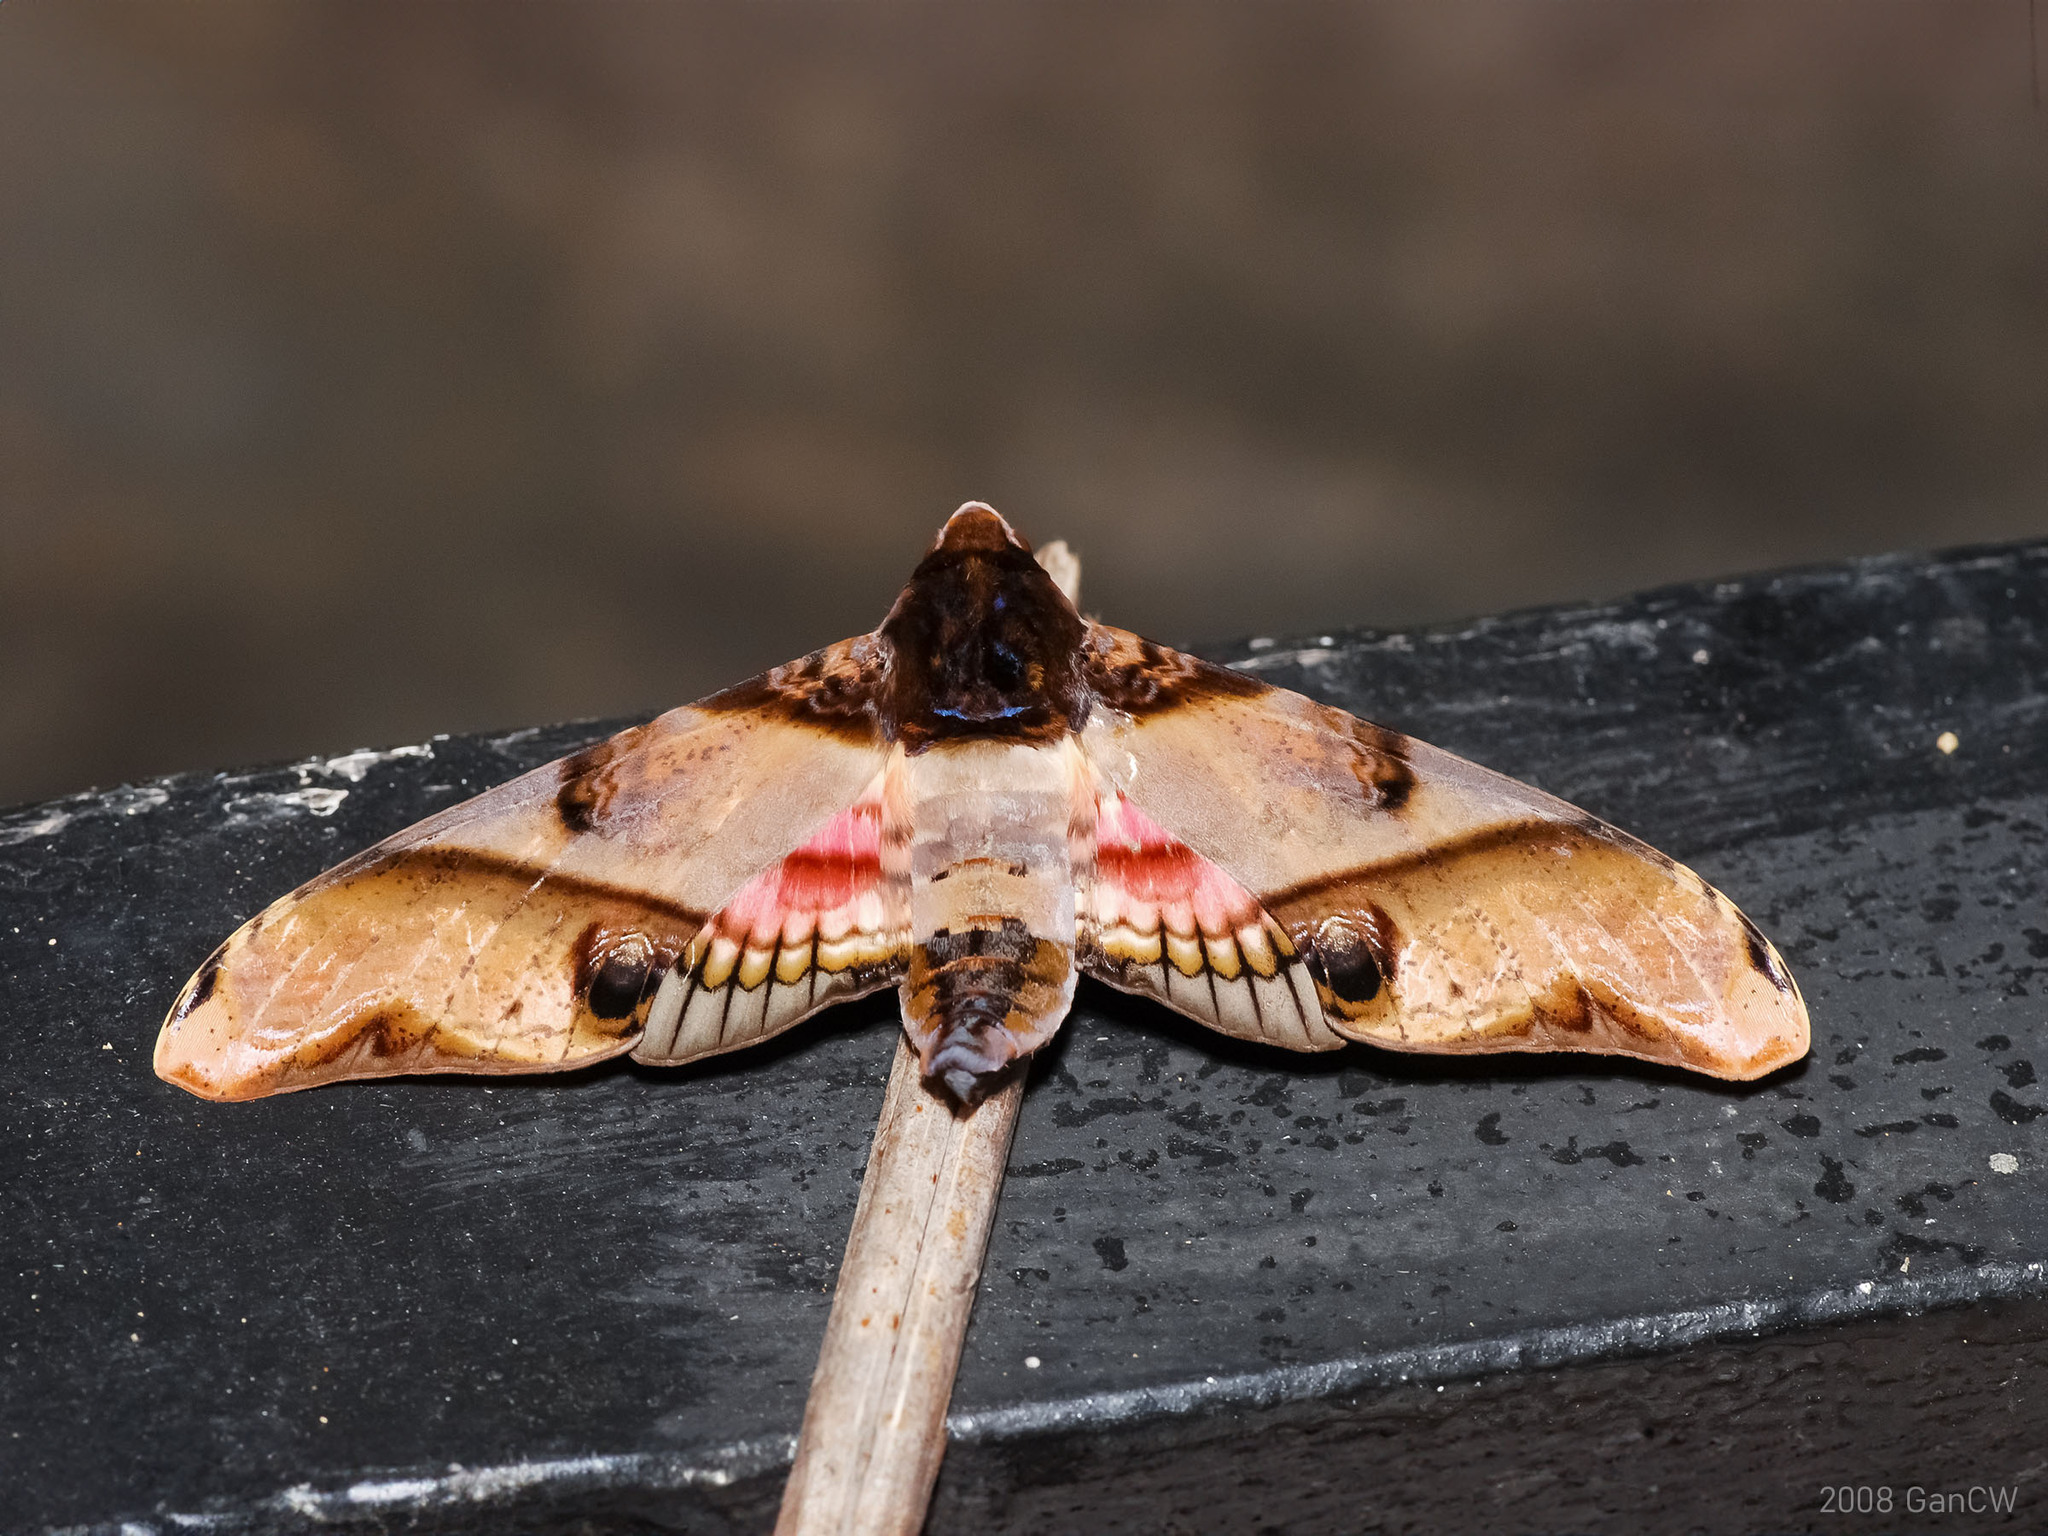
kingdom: Animalia
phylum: Arthropoda
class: Insecta
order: Lepidoptera
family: Sphingidae
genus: Amplypterus
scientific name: Amplypterus panopus
